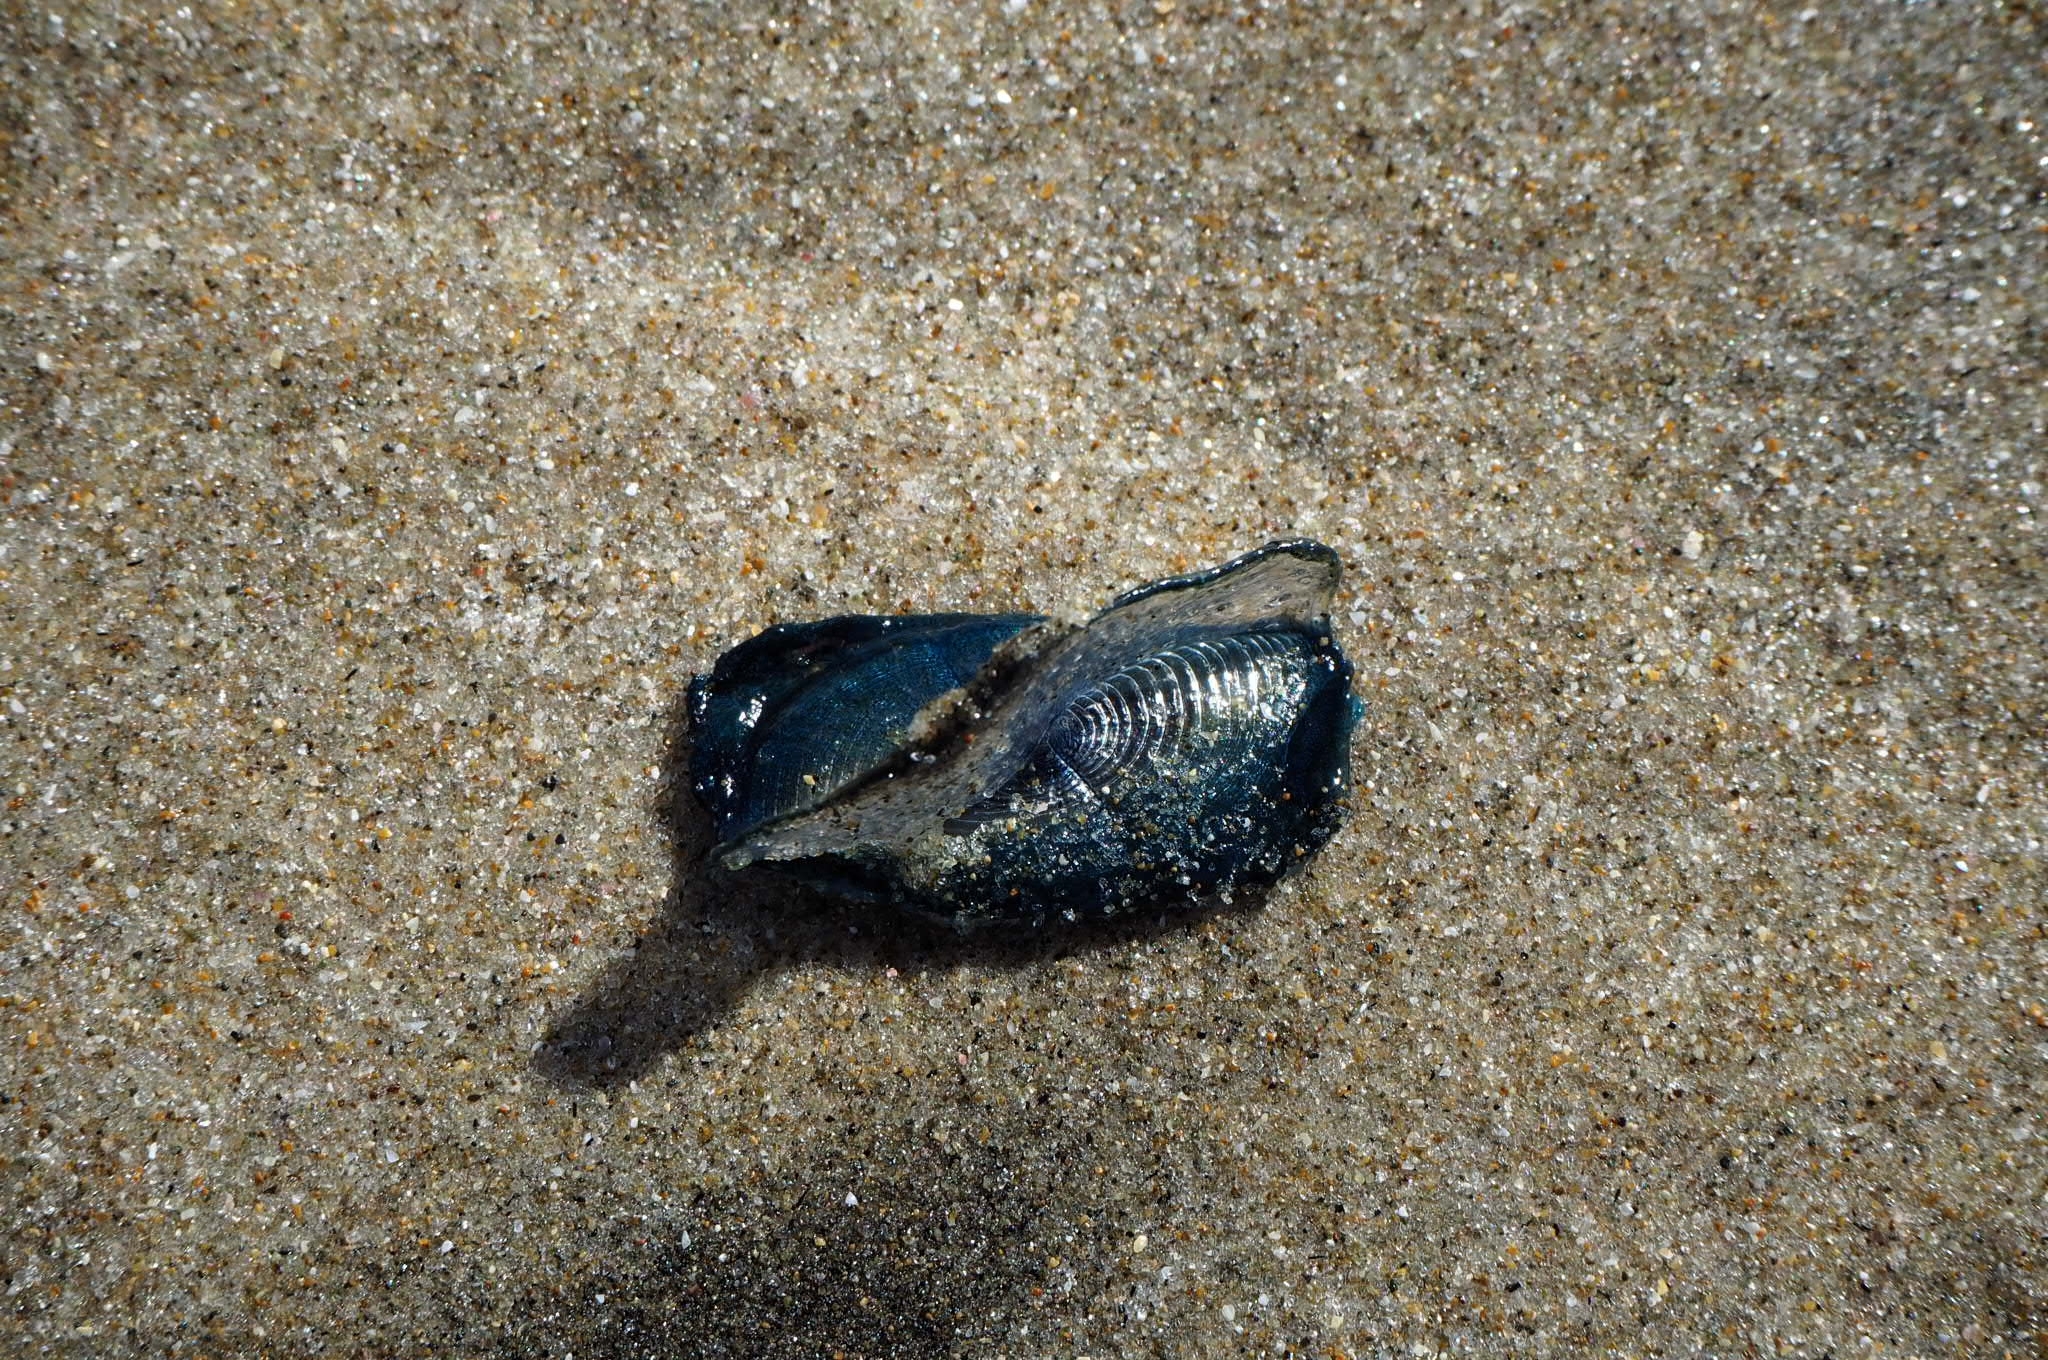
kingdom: Animalia
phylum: Cnidaria
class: Hydrozoa
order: Anthoathecata
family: Porpitidae
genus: Velella
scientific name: Velella velella
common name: By-the-wind-sailor
